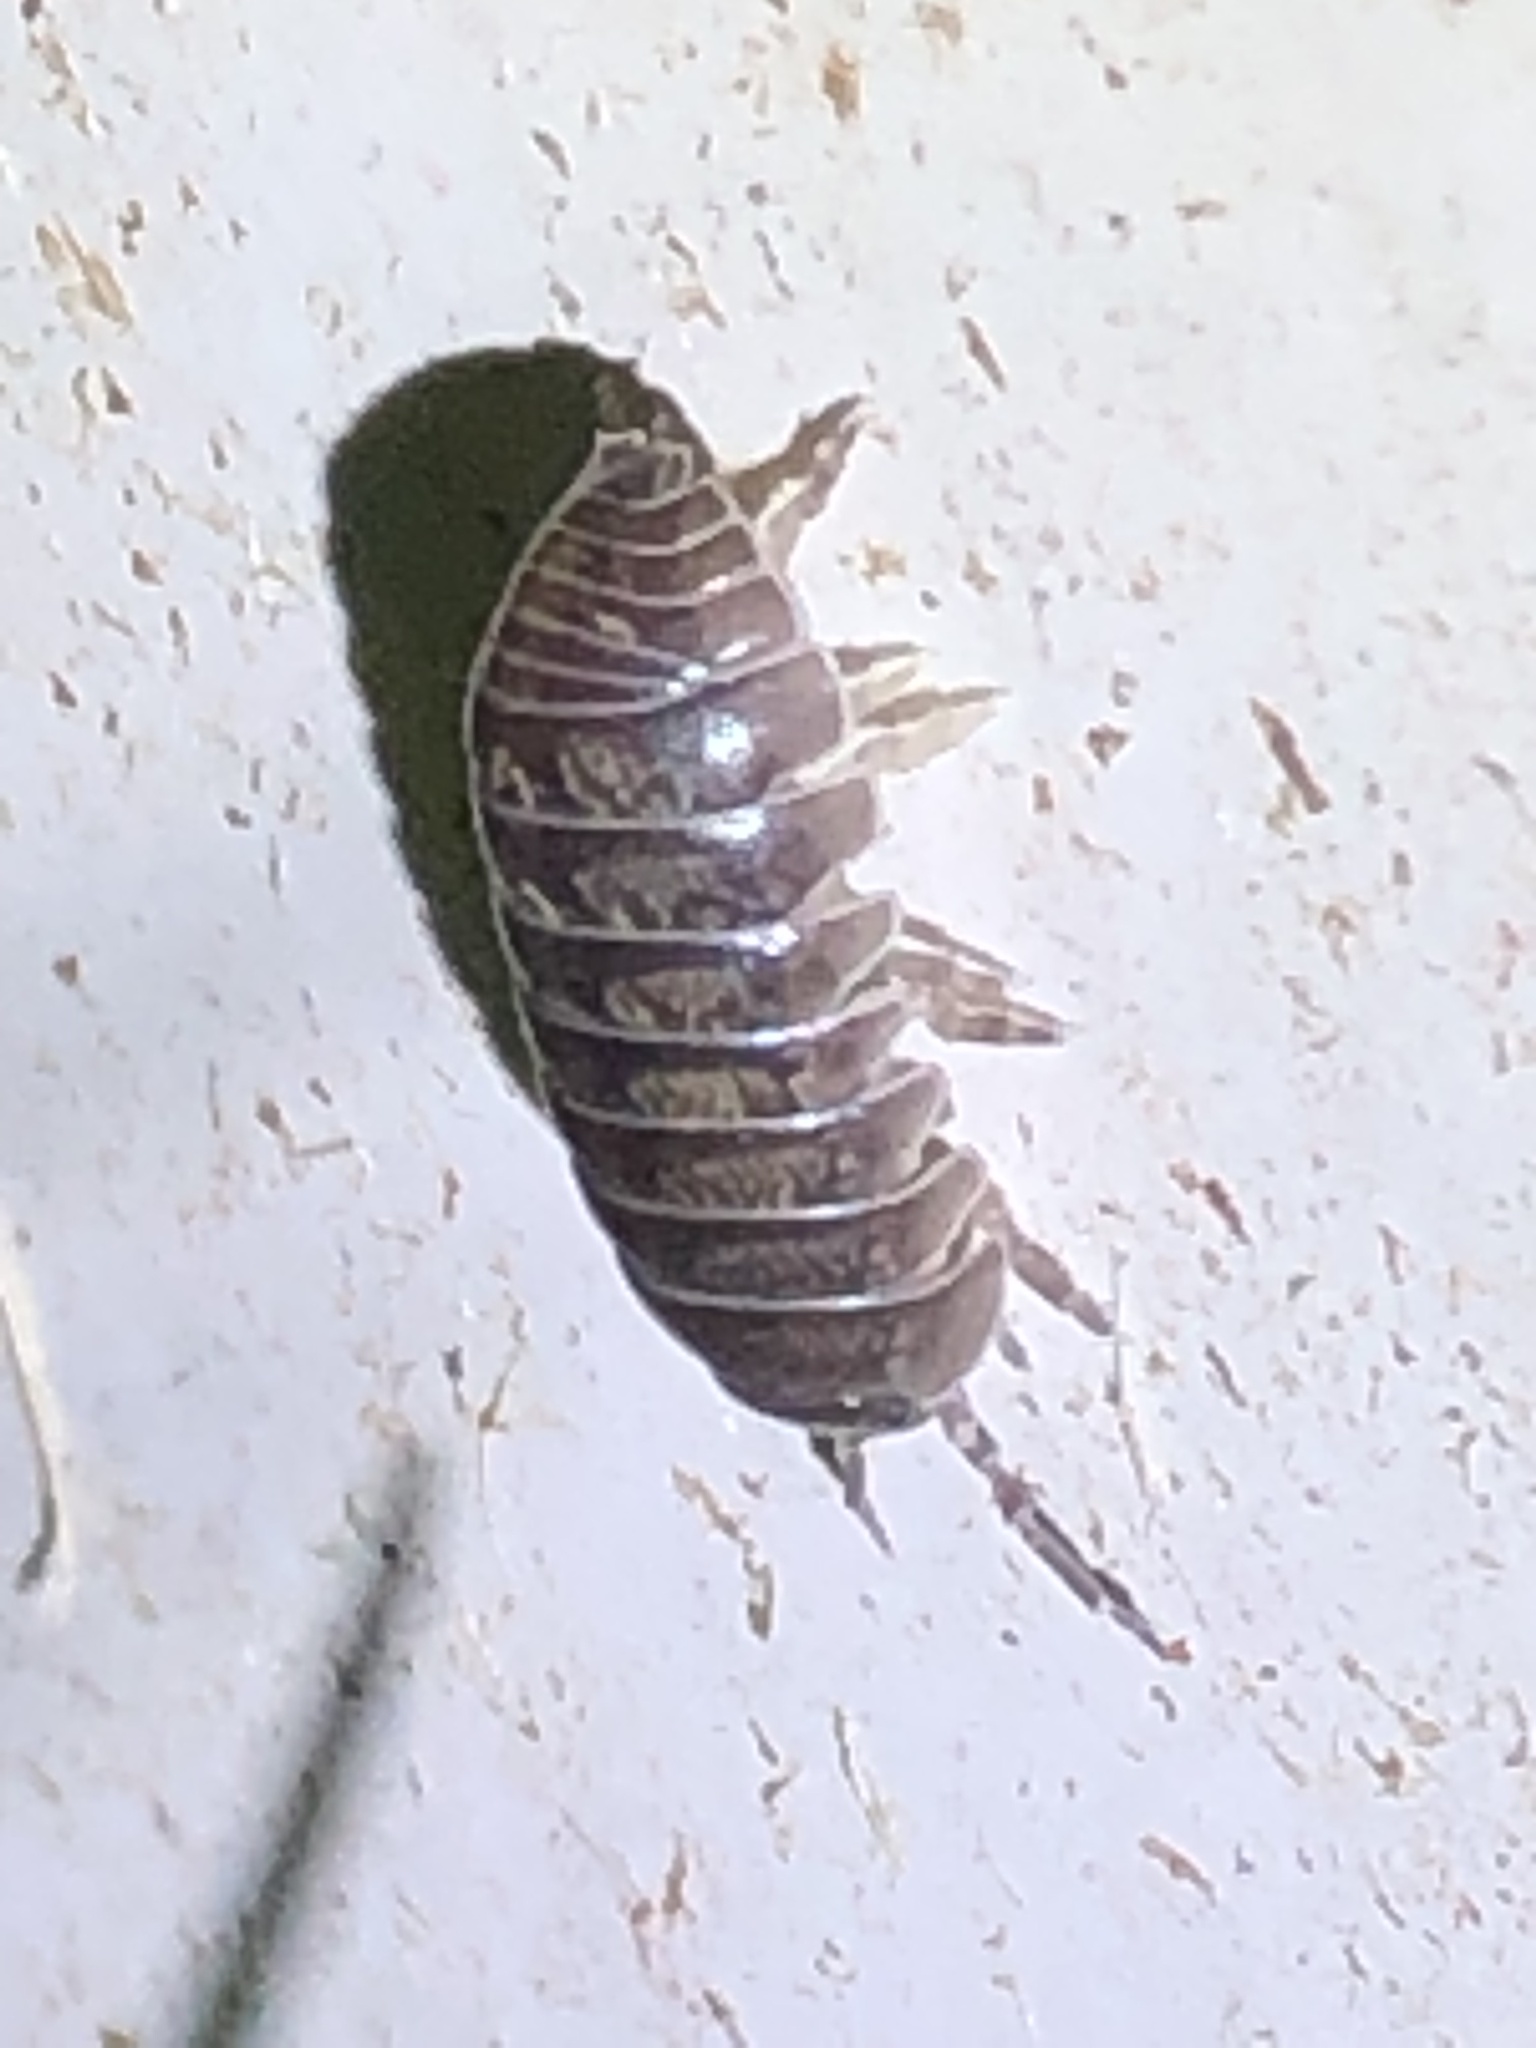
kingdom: Animalia
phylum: Arthropoda
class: Malacostraca
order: Isopoda
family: Armadillidiidae
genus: Armadillidium
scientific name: Armadillidium vulgare
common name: Common pill woodlouse
